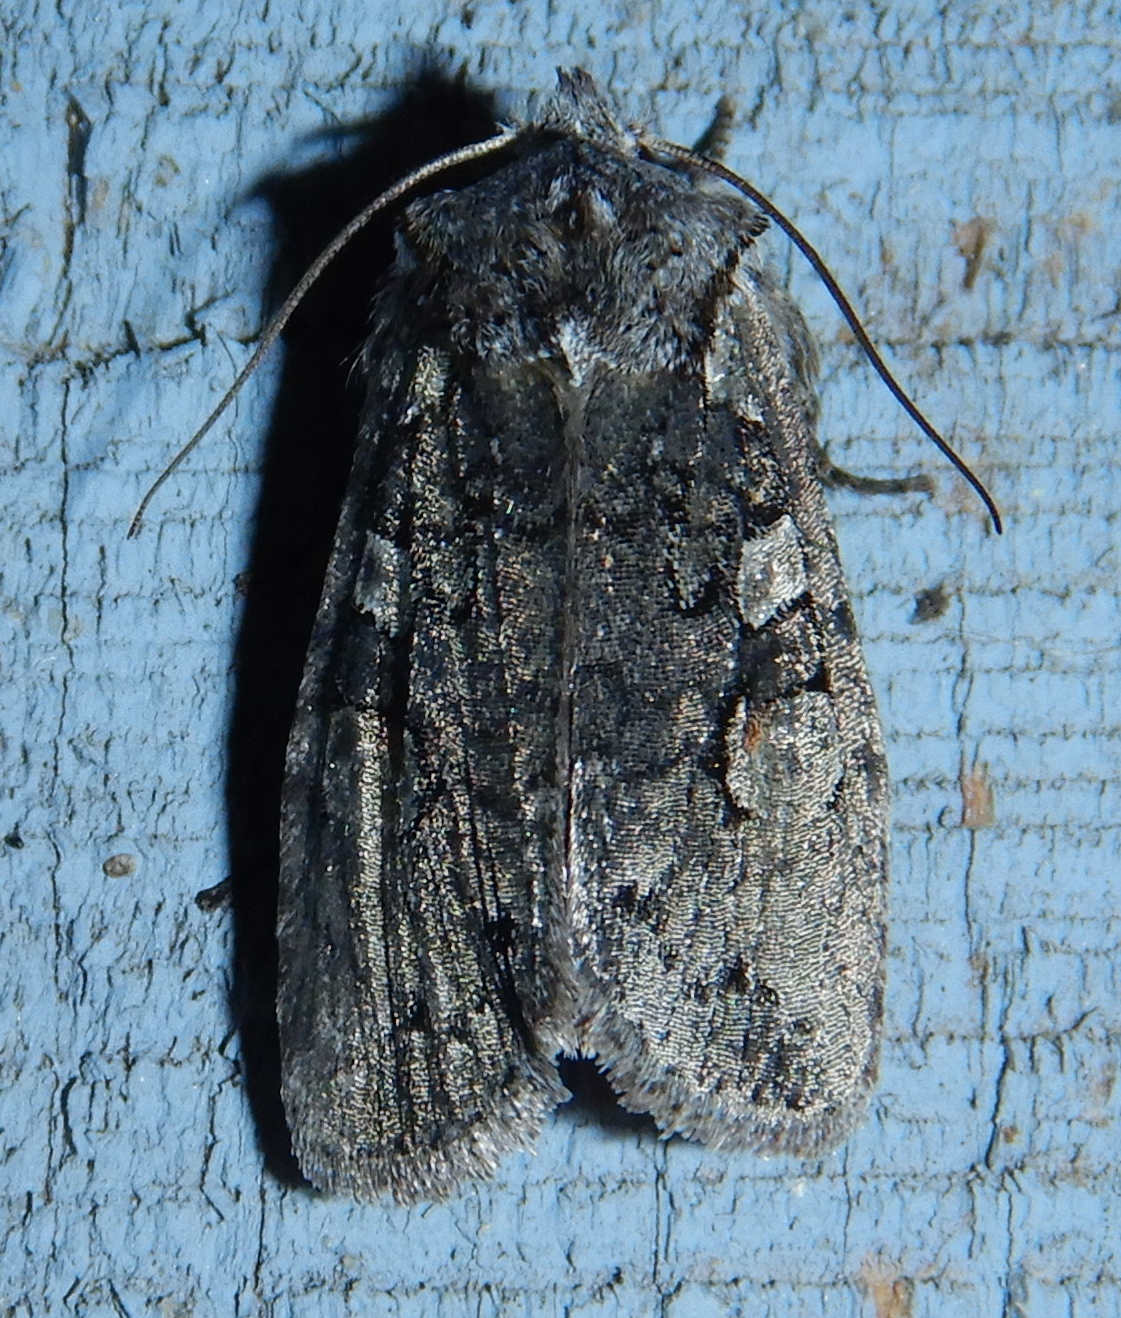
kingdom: Animalia
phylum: Arthropoda
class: Insecta
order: Lepidoptera
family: Noctuidae
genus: Lithophane
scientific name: Lithophane baileyi
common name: Bailey's pinion moth
